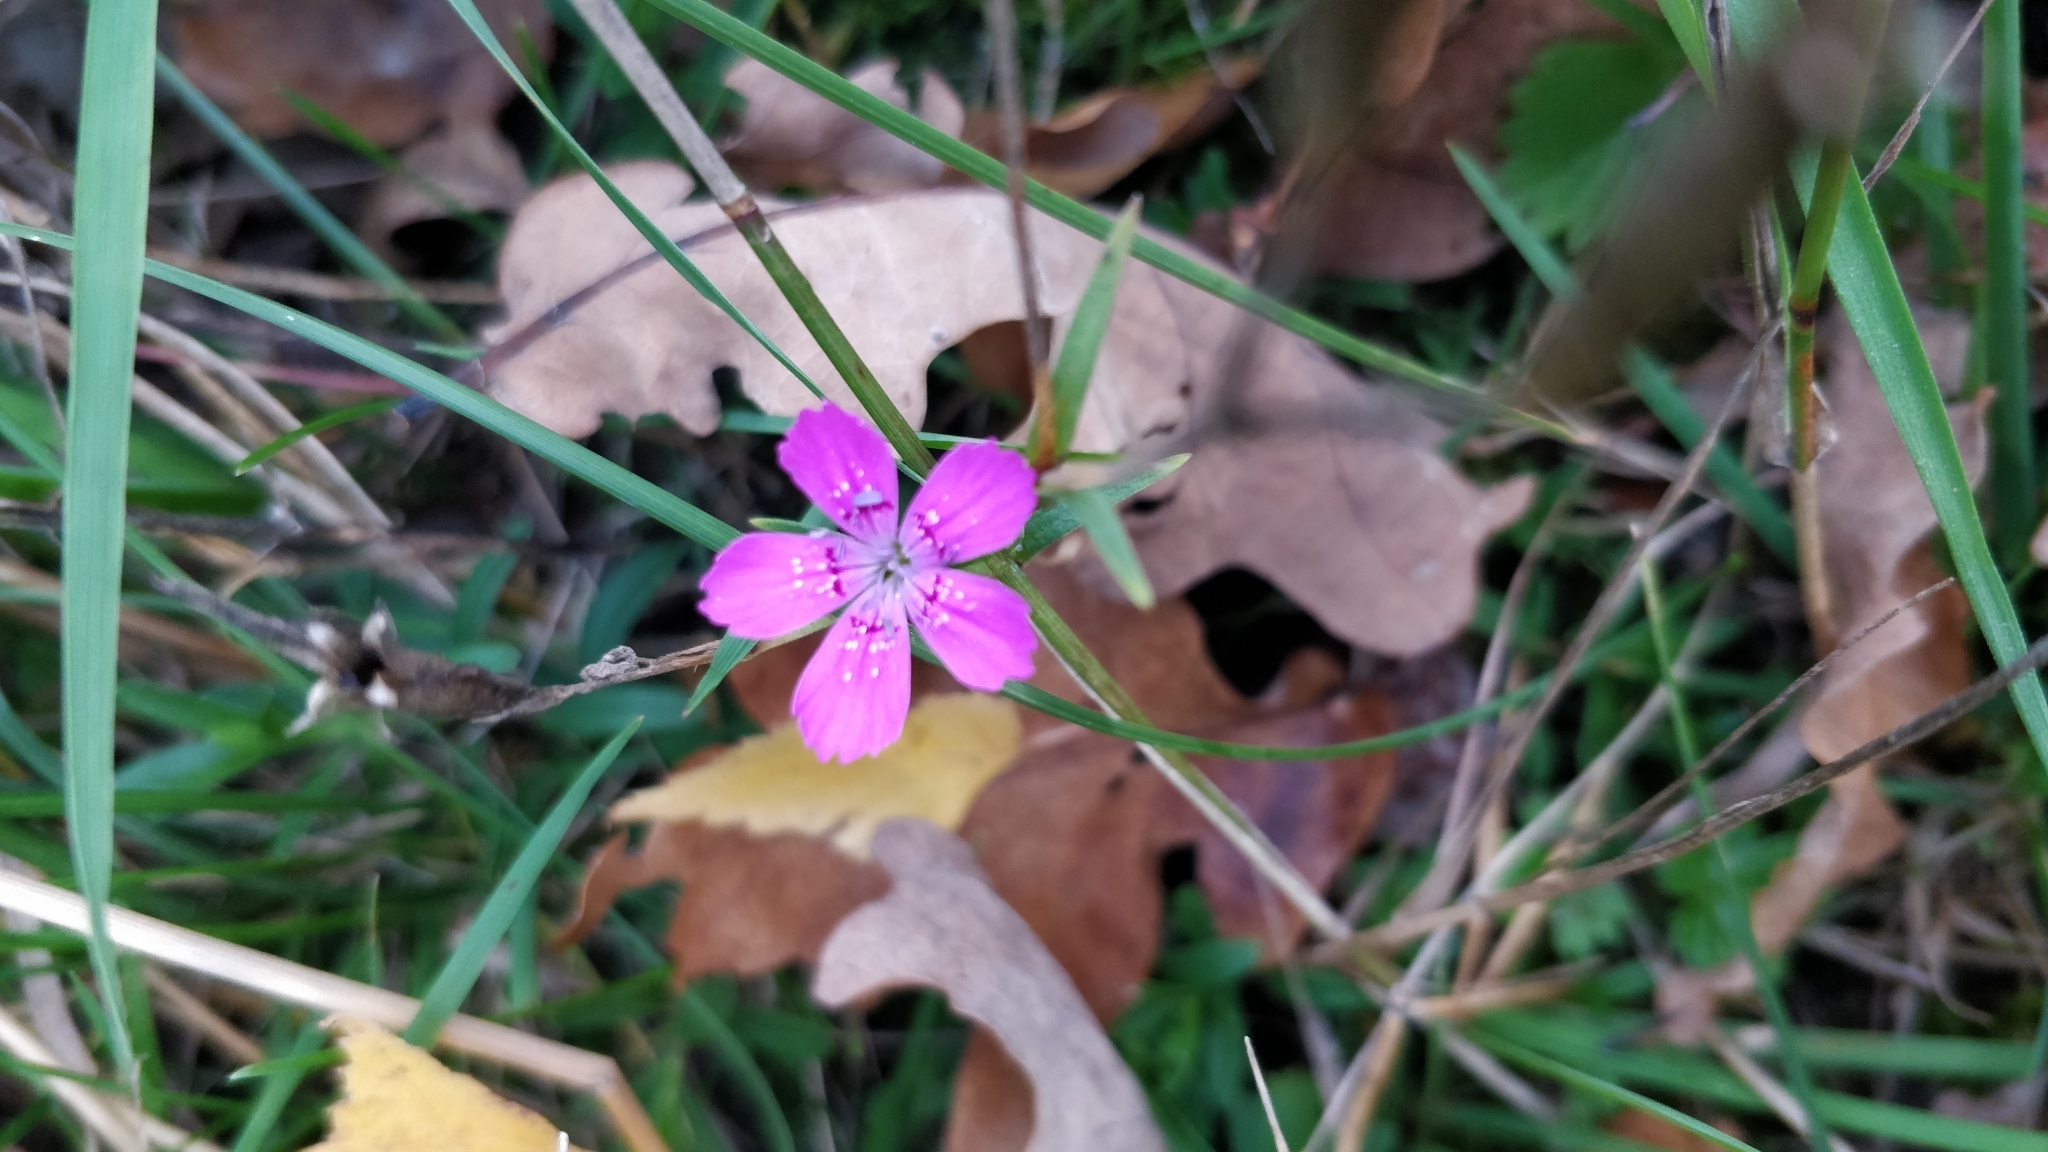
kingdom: Plantae
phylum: Tracheophyta
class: Magnoliopsida
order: Caryophyllales
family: Caryophyllaceae
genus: Dianthus
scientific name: Dianthus deltoides
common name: Maiden pink
